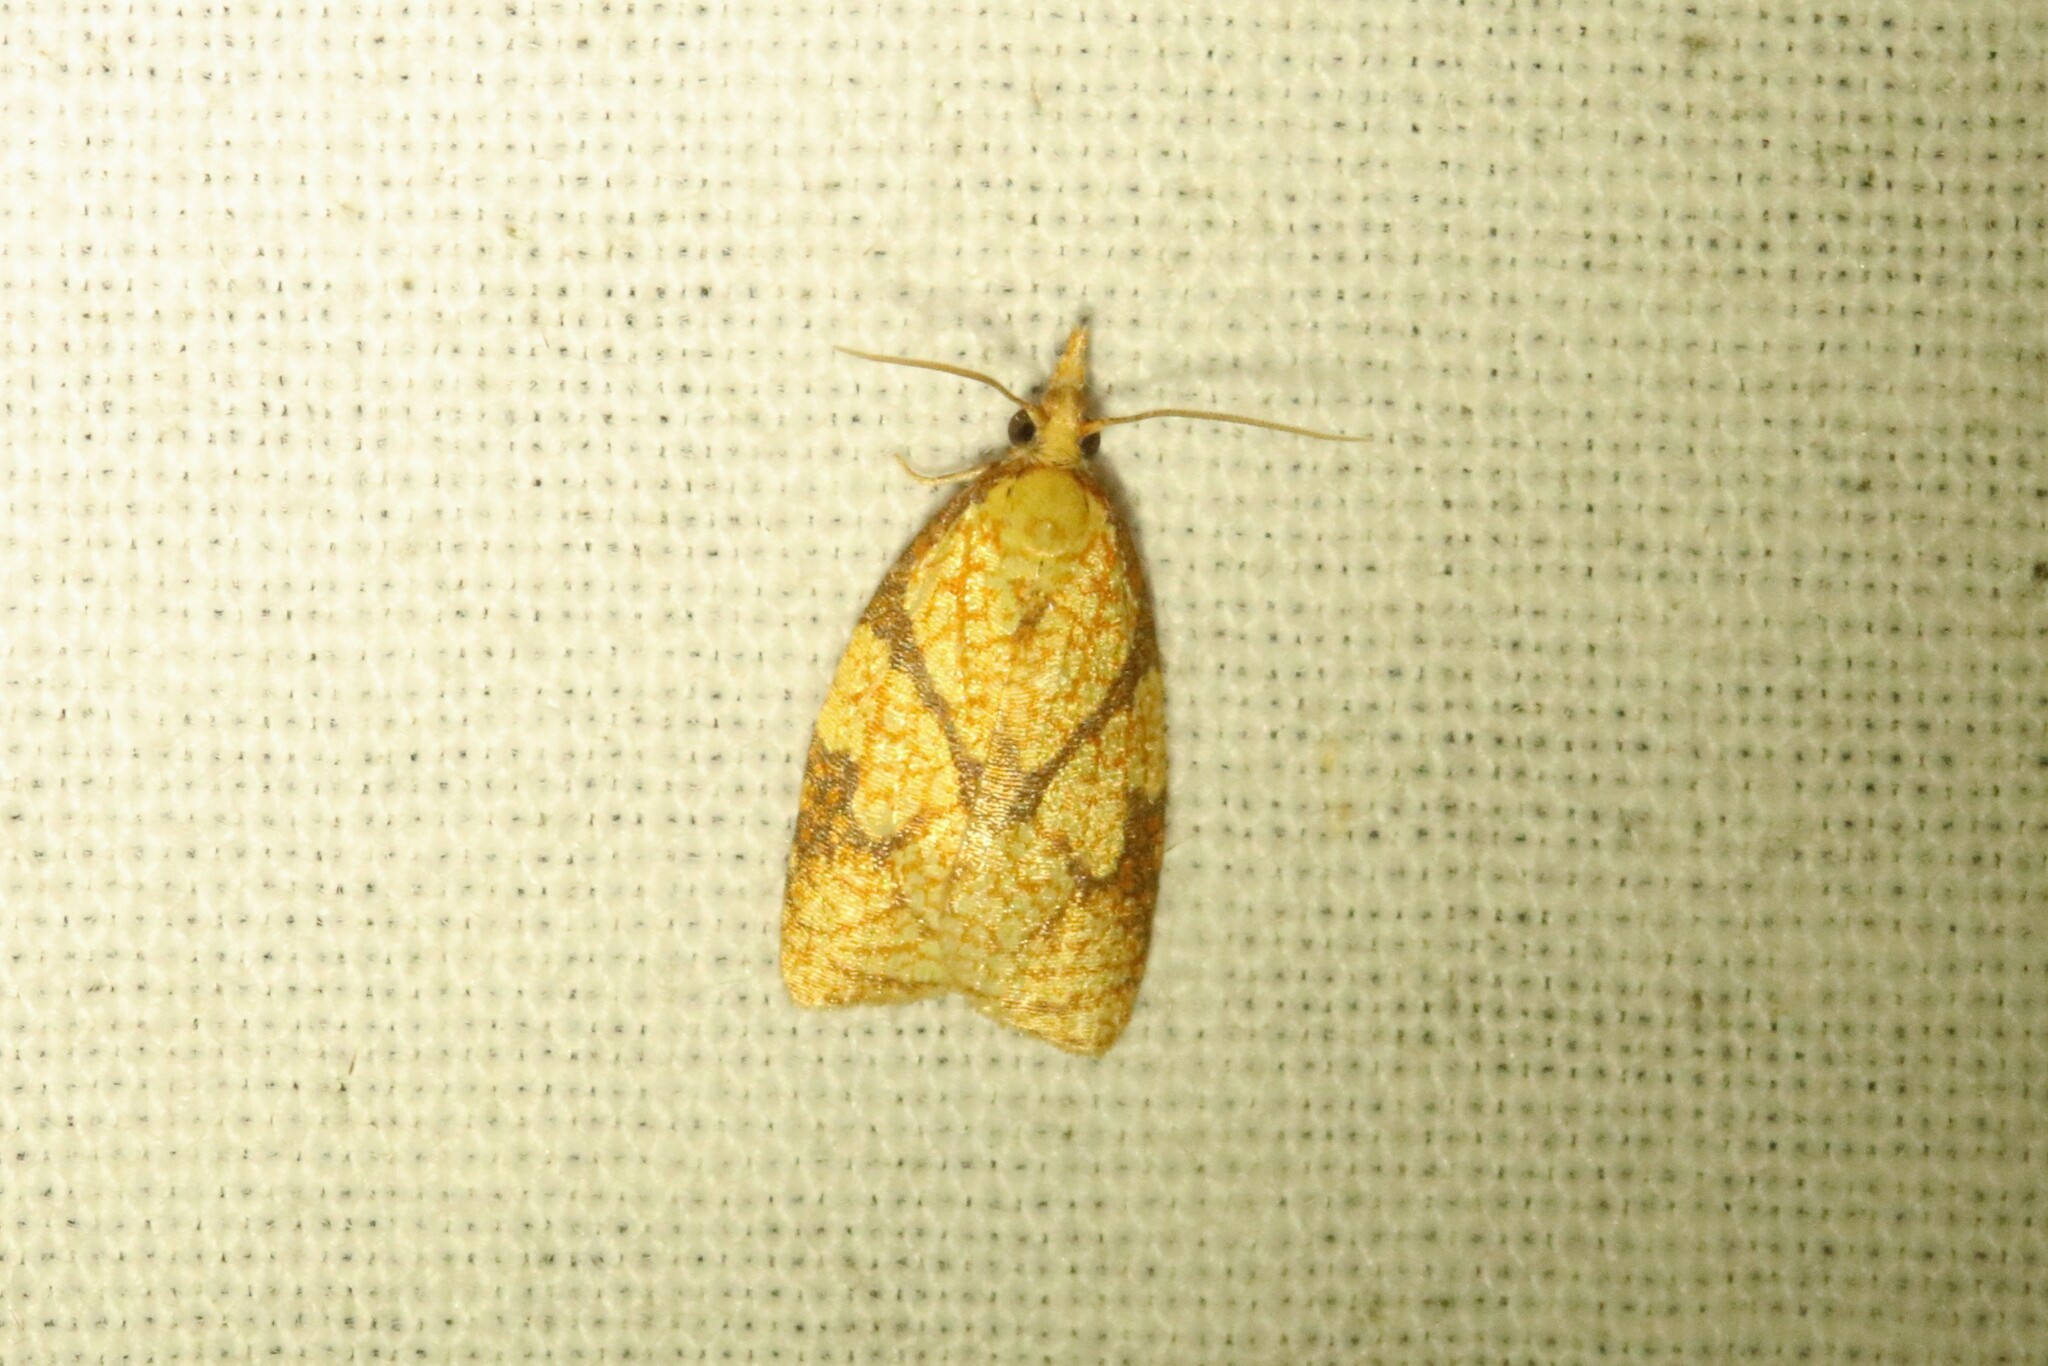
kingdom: Animalia
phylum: Arthropoda
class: Insecta
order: Lepidoptera
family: Tortricidae
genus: Cenopis
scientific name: Cenopis reticulatana
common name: Reticulated fruitworm moth
